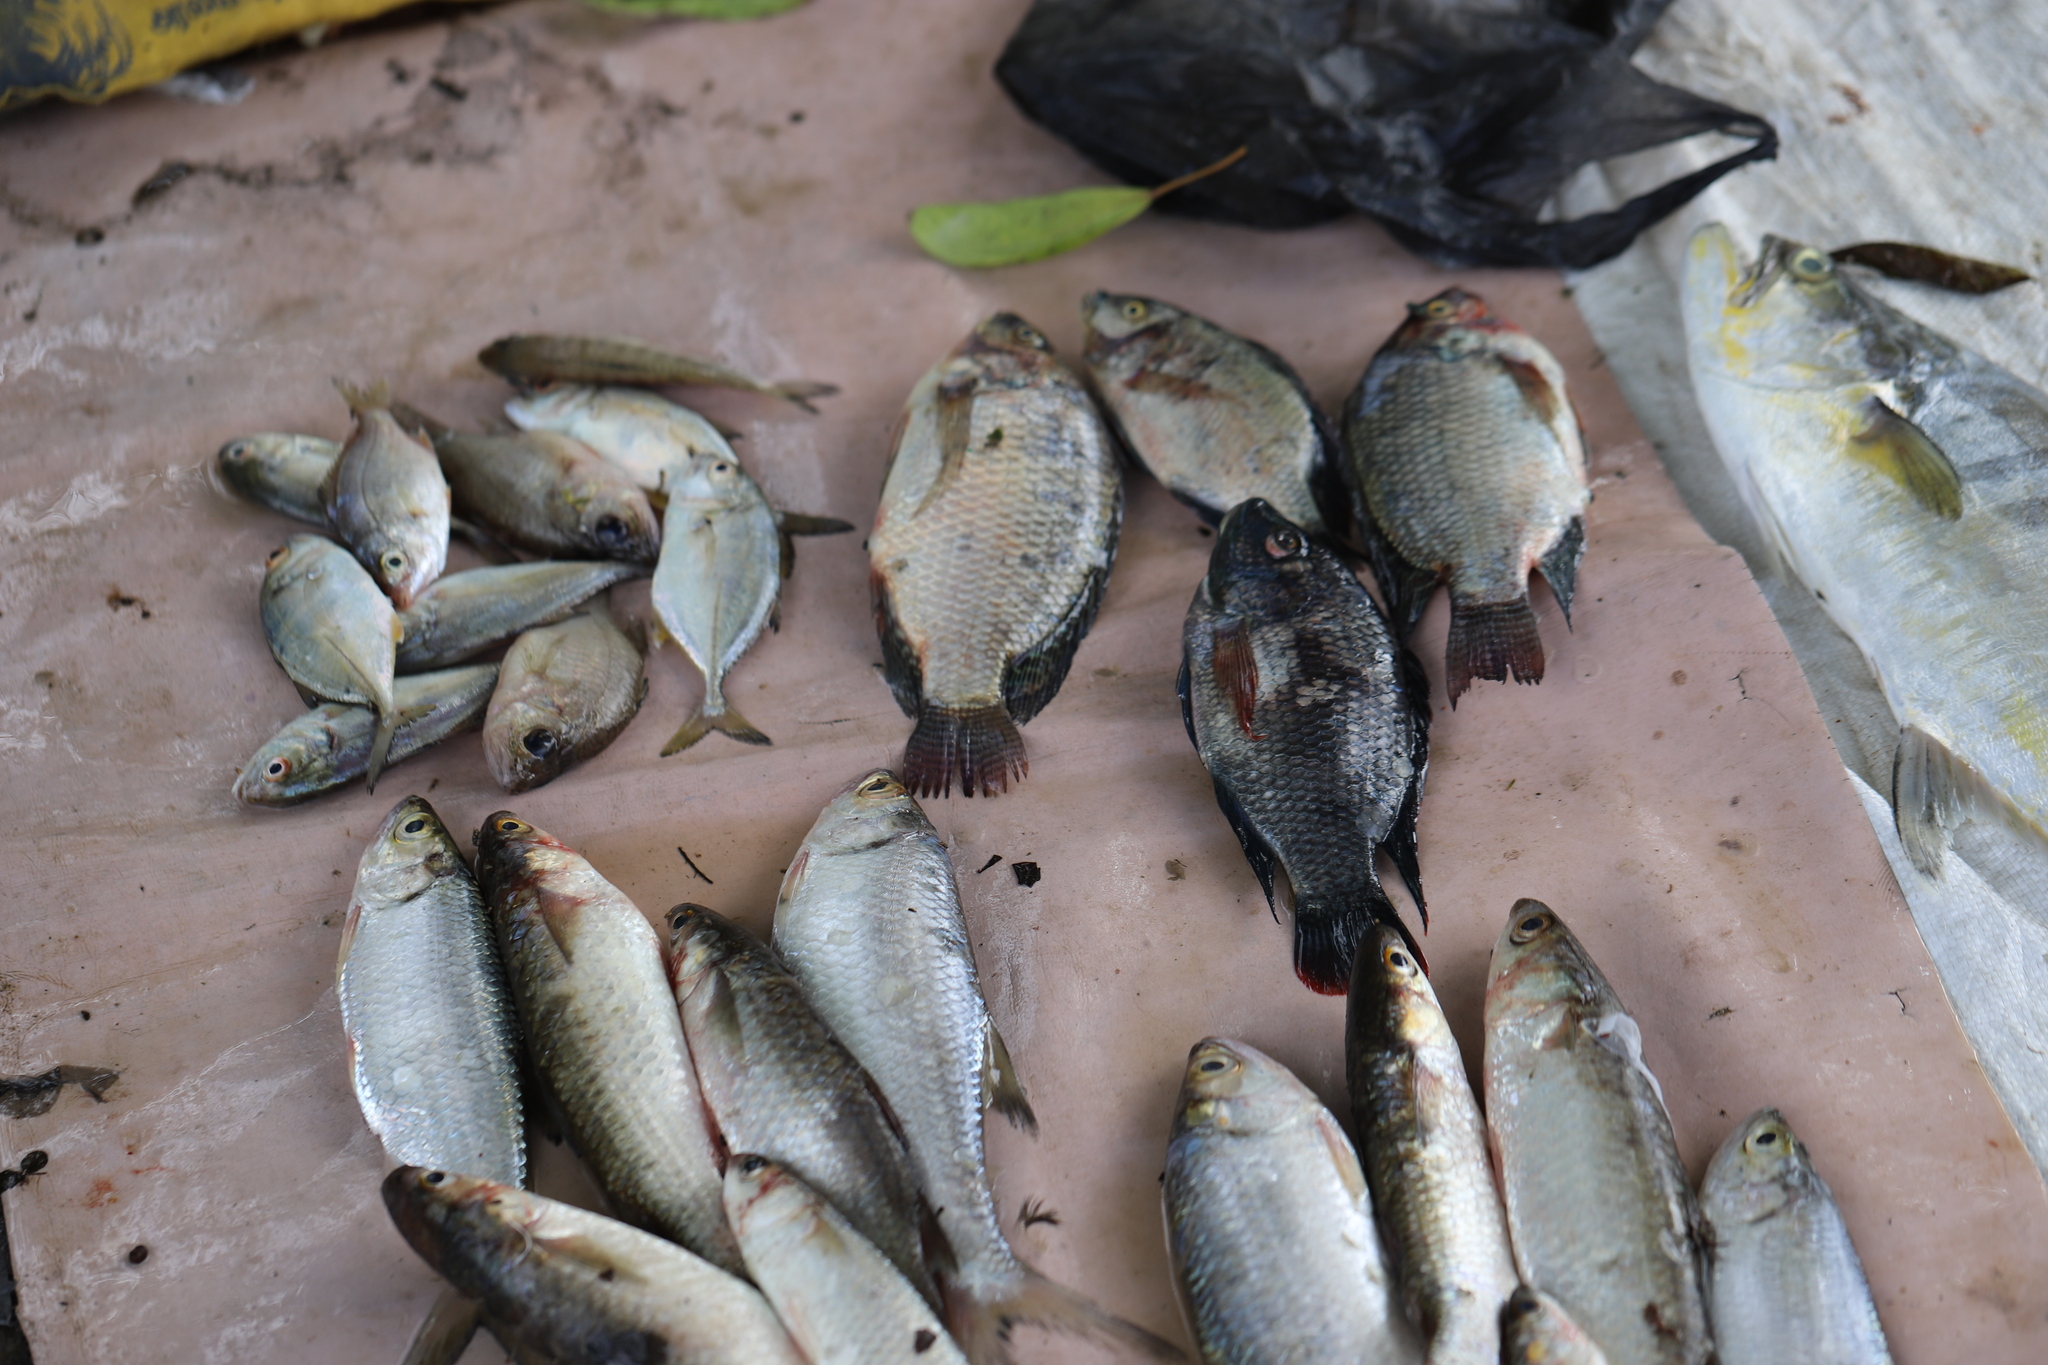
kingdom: Animalia
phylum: Chordata
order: Perciformes
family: Cichlidae
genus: Oreochromis
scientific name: Oreochromis niloticus
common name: Nile tilapia
